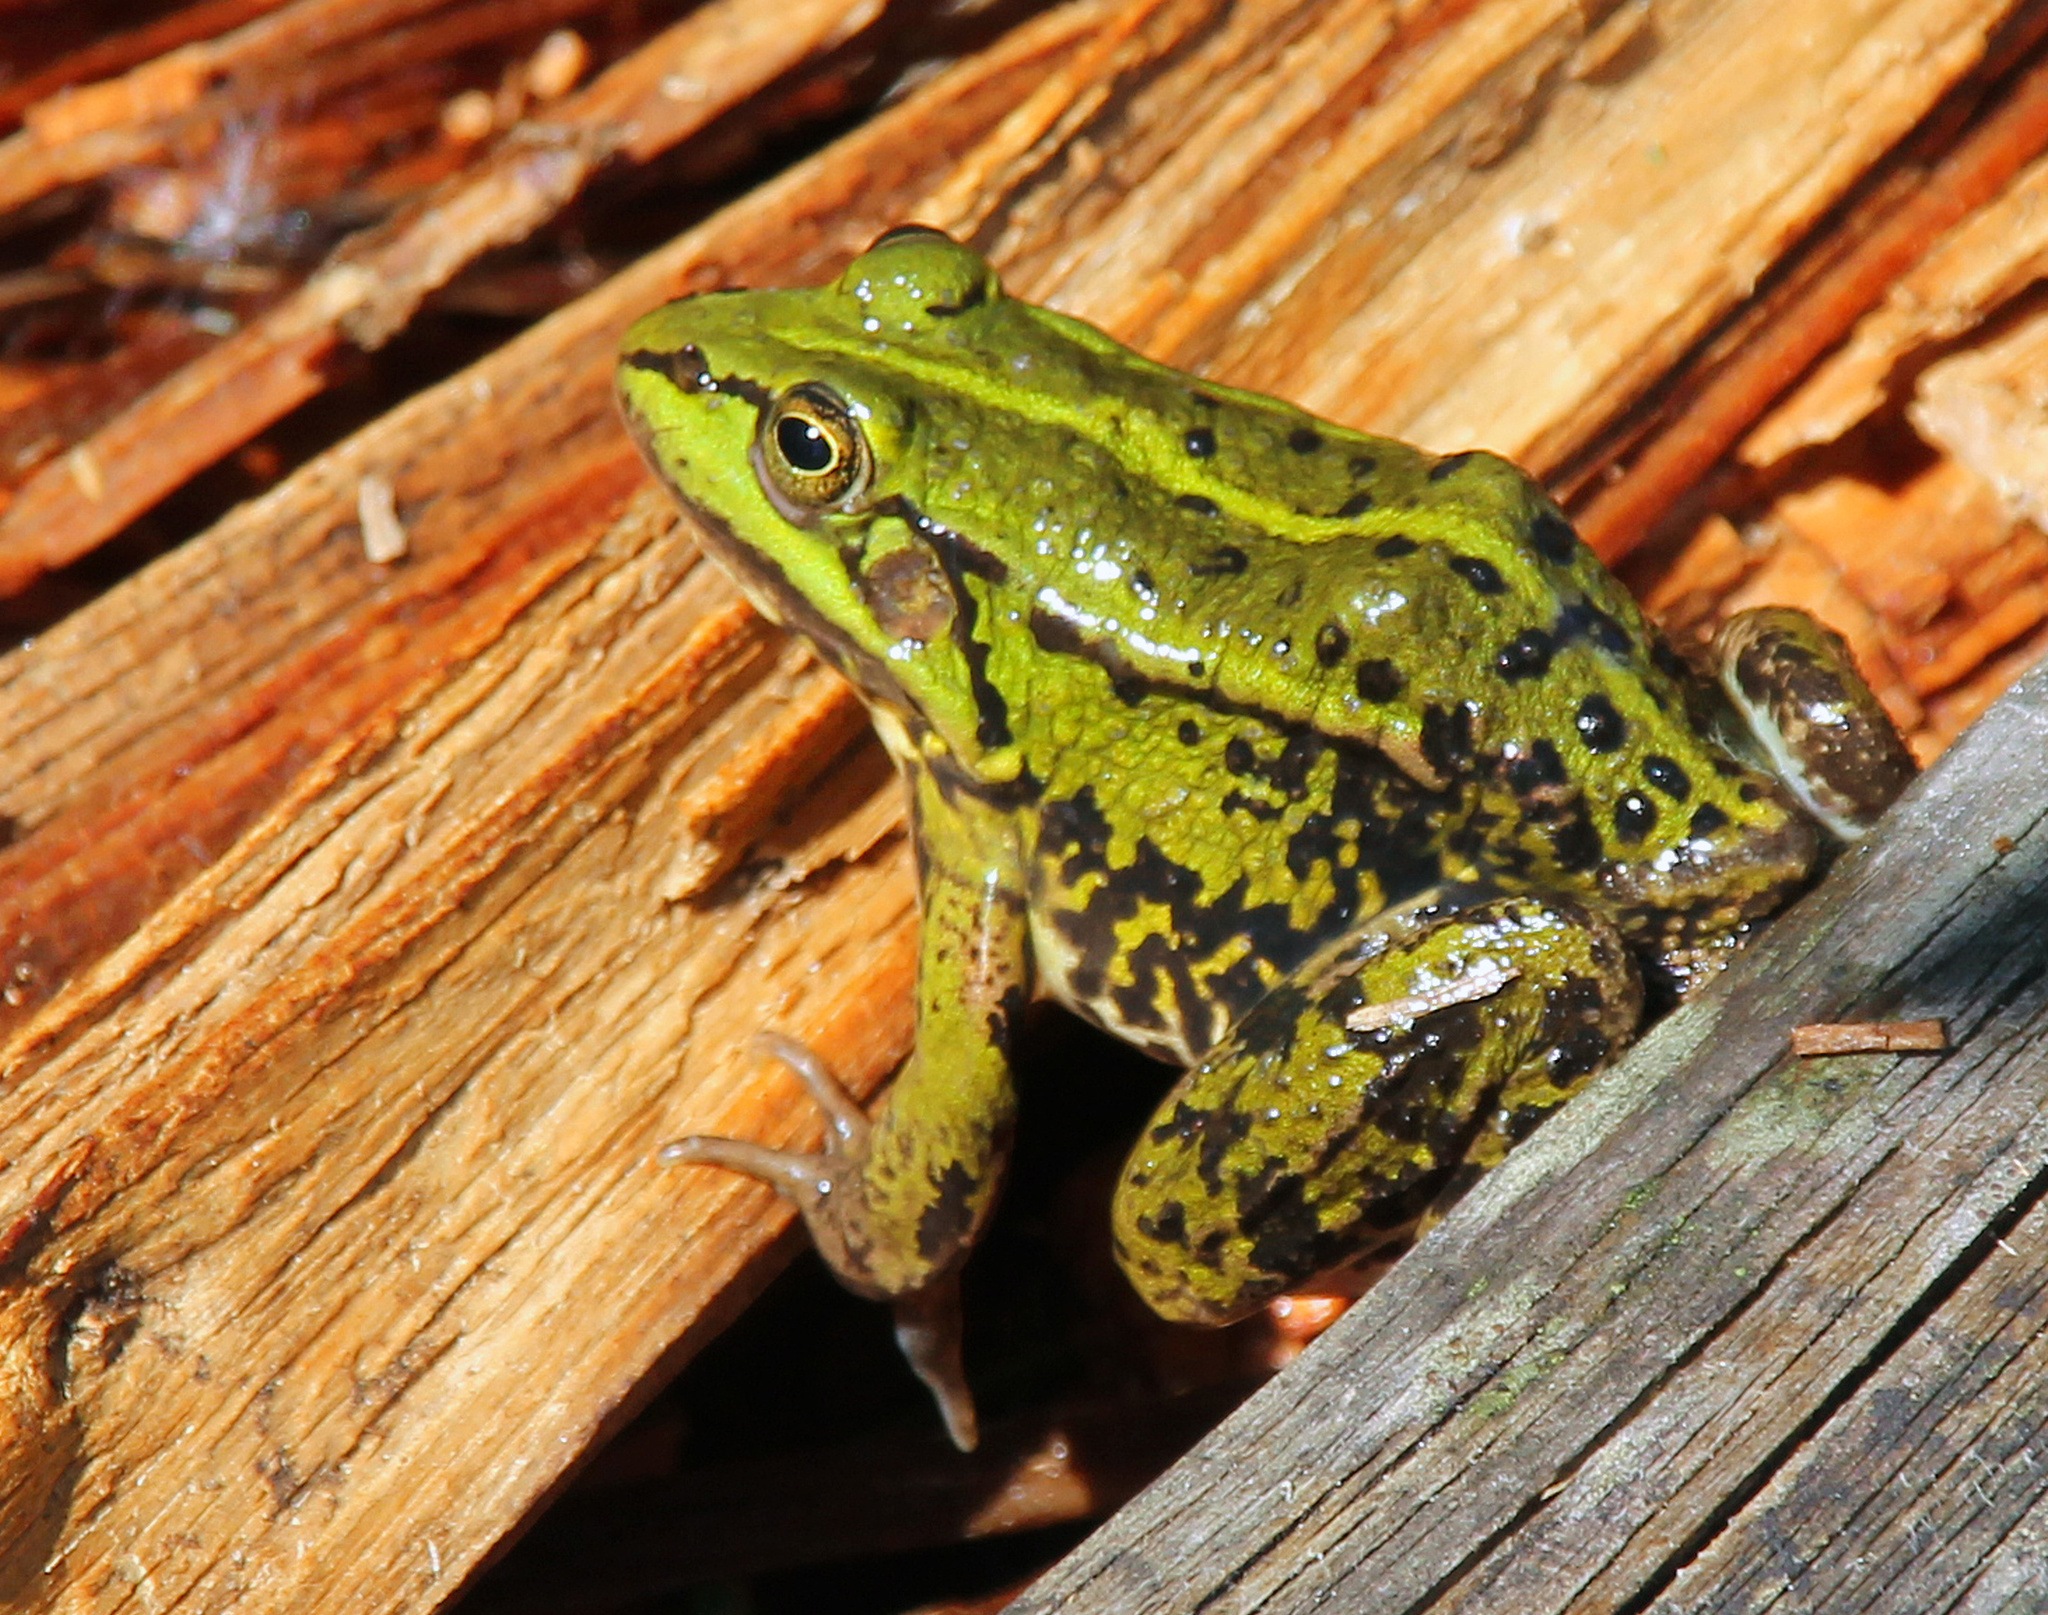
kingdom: Animalia
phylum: Chordata
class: Amphibia
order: Anura
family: Ranidae
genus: Pelophylax
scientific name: Pelophylax
